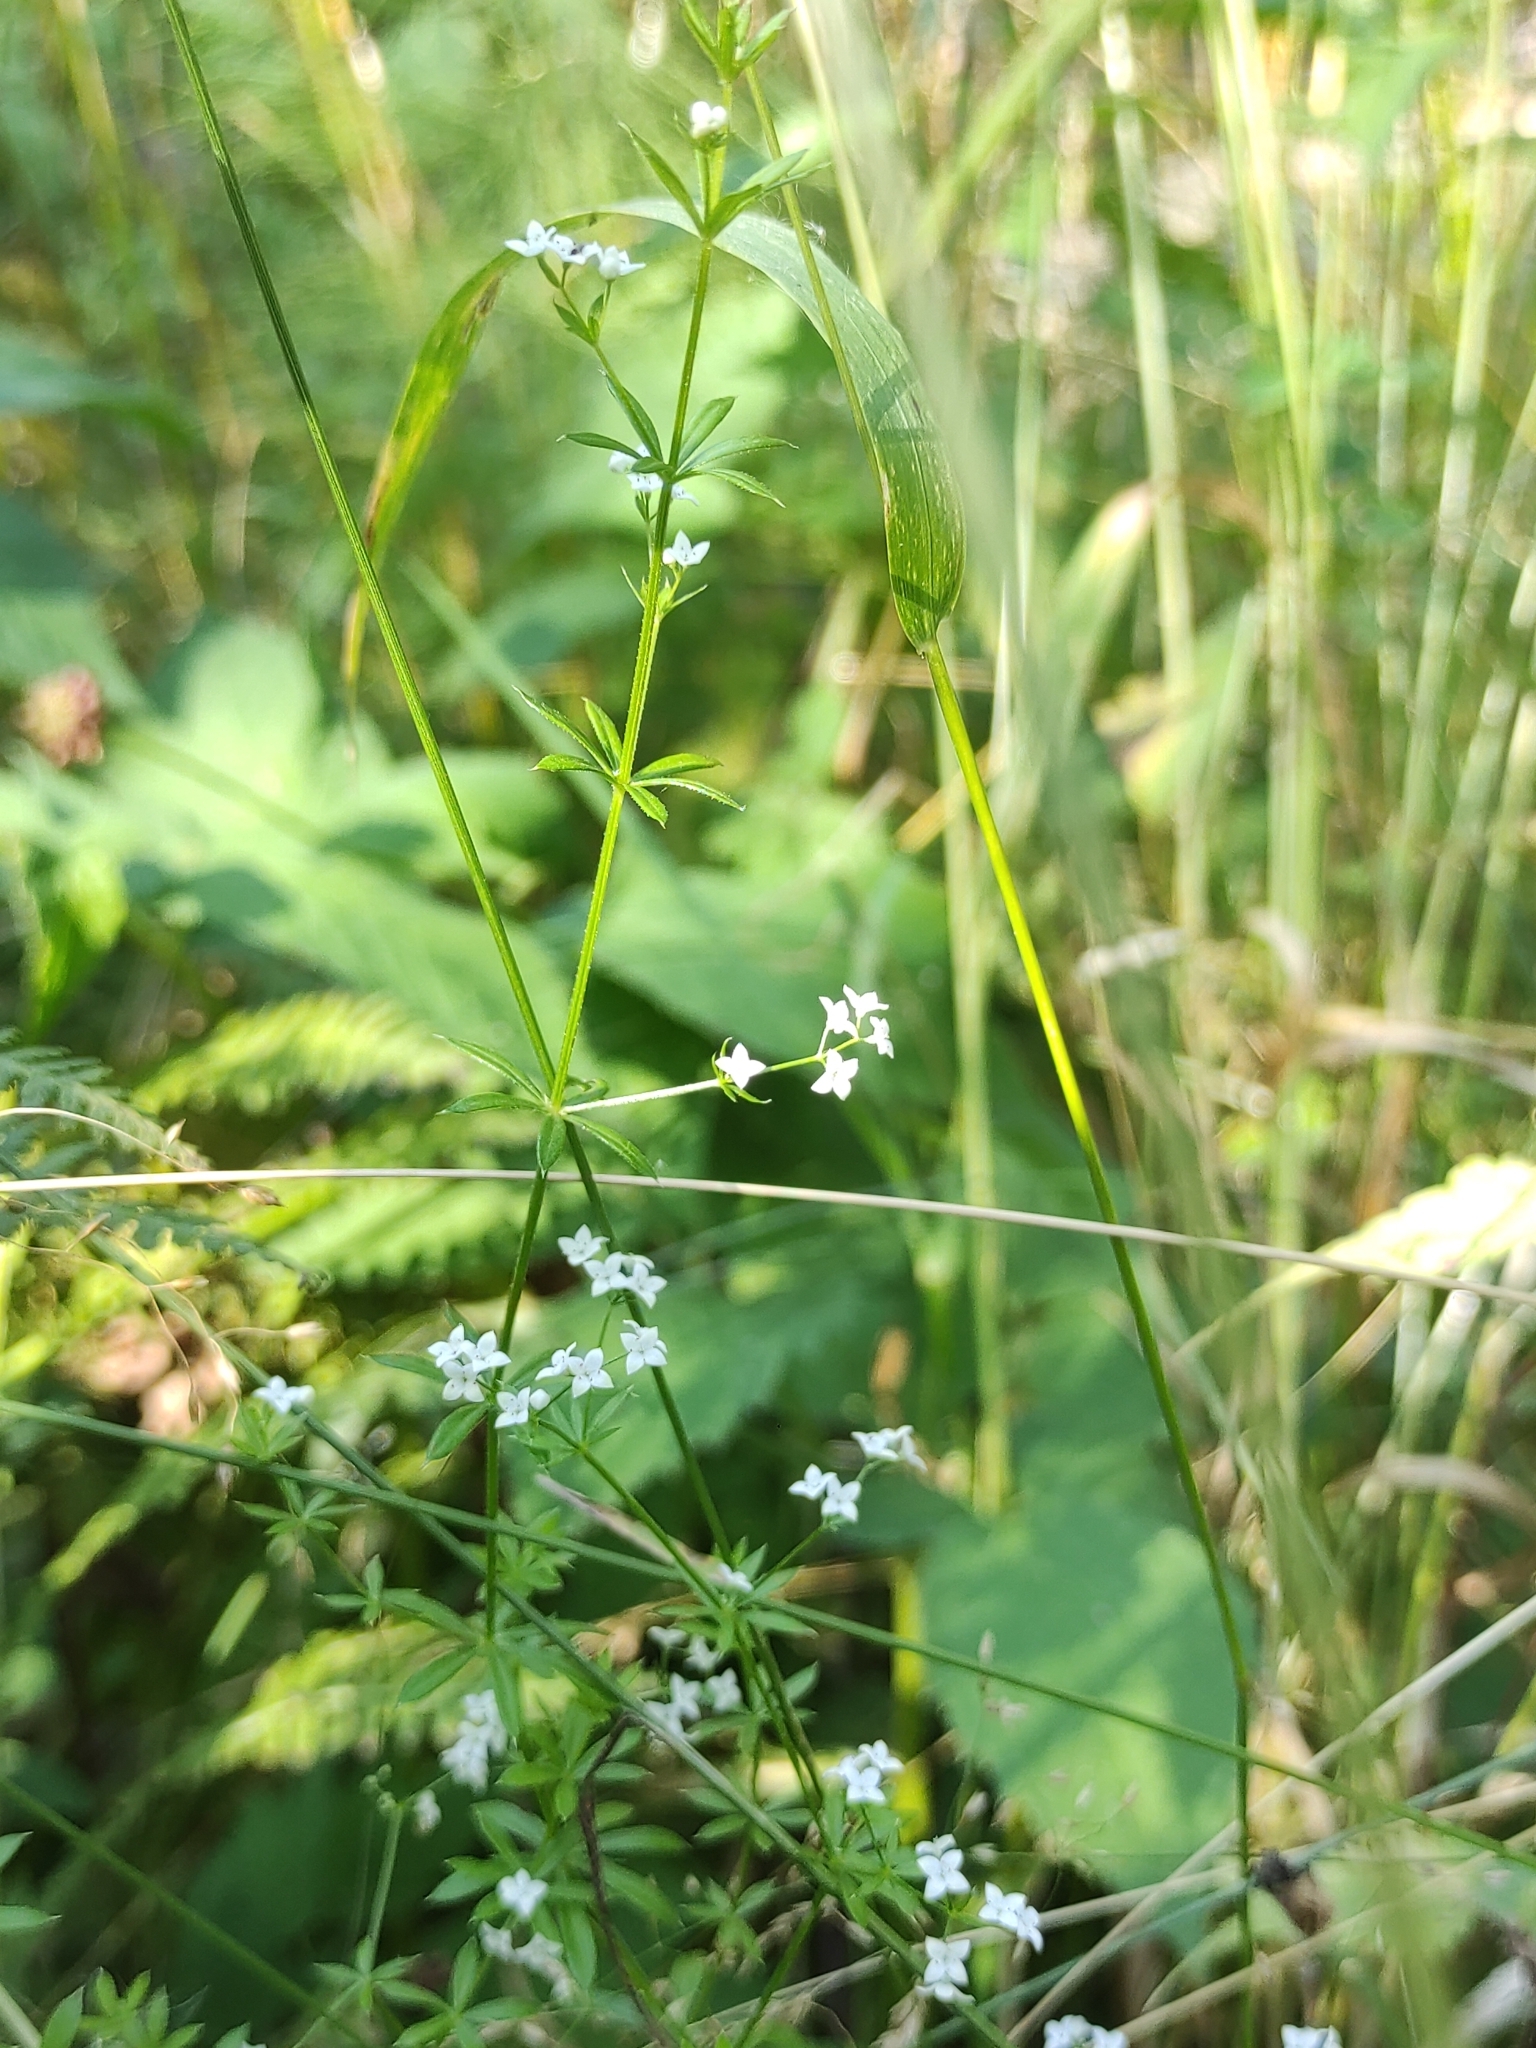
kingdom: Plantae
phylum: Tracheophyta
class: Magnoliopsida
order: Gentianales
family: Rubiaceae
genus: Galium
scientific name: Galium uliginosum
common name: Fen bedstraw
